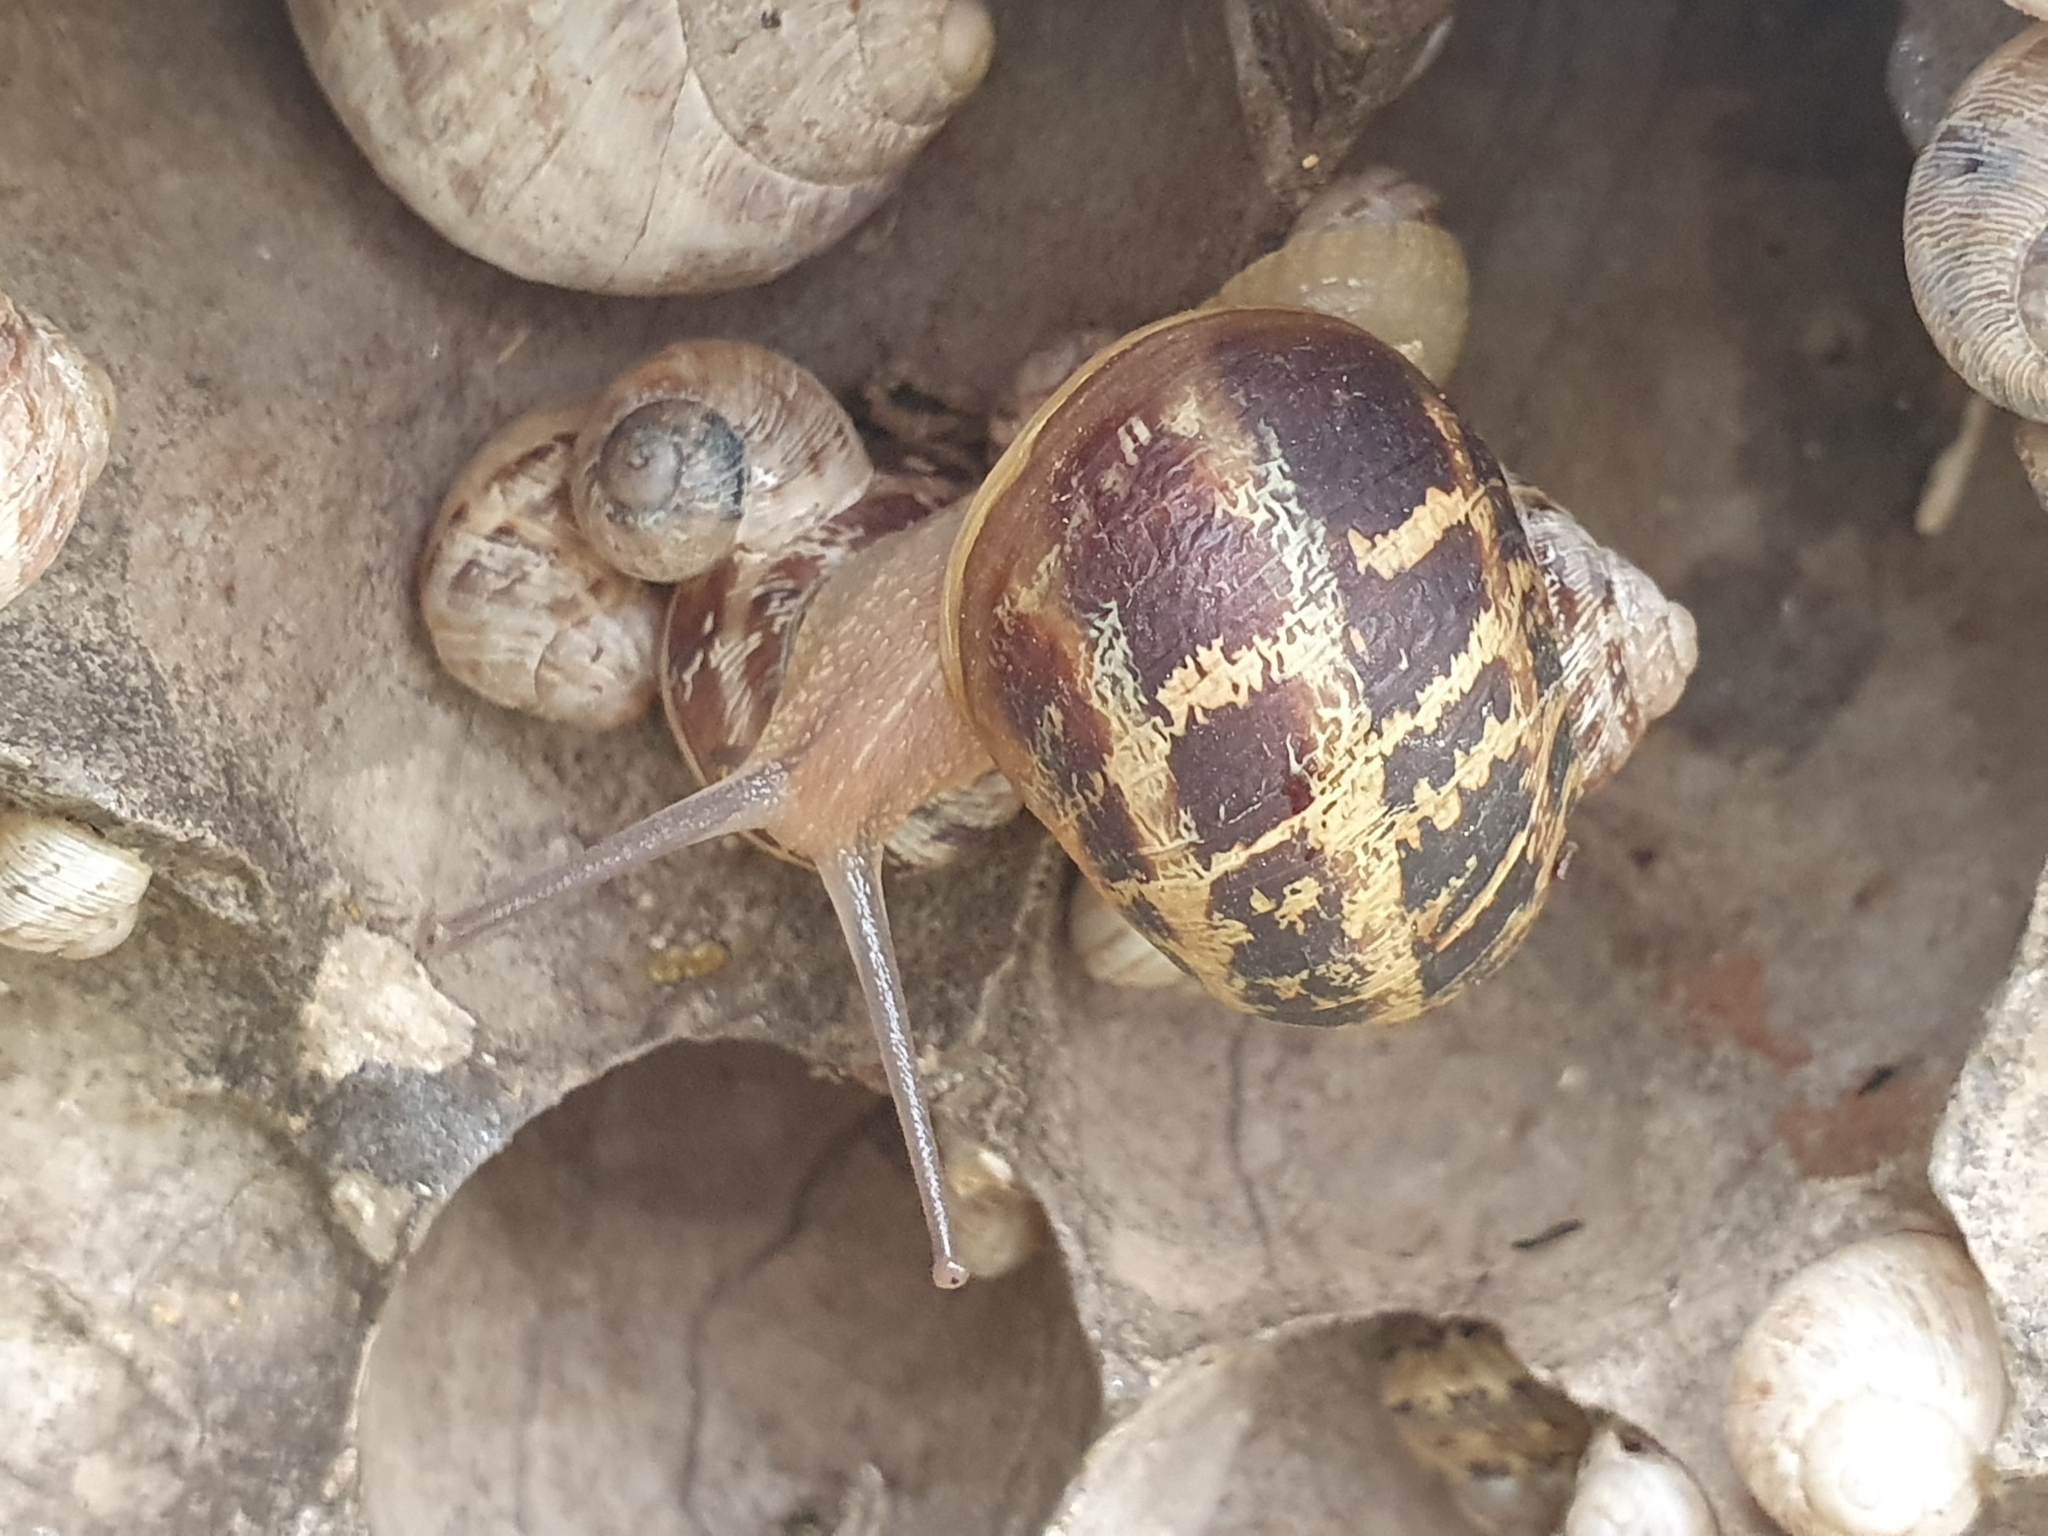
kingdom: Animalia
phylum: Mollusca
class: Gastropoda
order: Stylommatophora
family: Helicidae
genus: Cornu
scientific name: Cornu aspersum
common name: Brown garden snail
